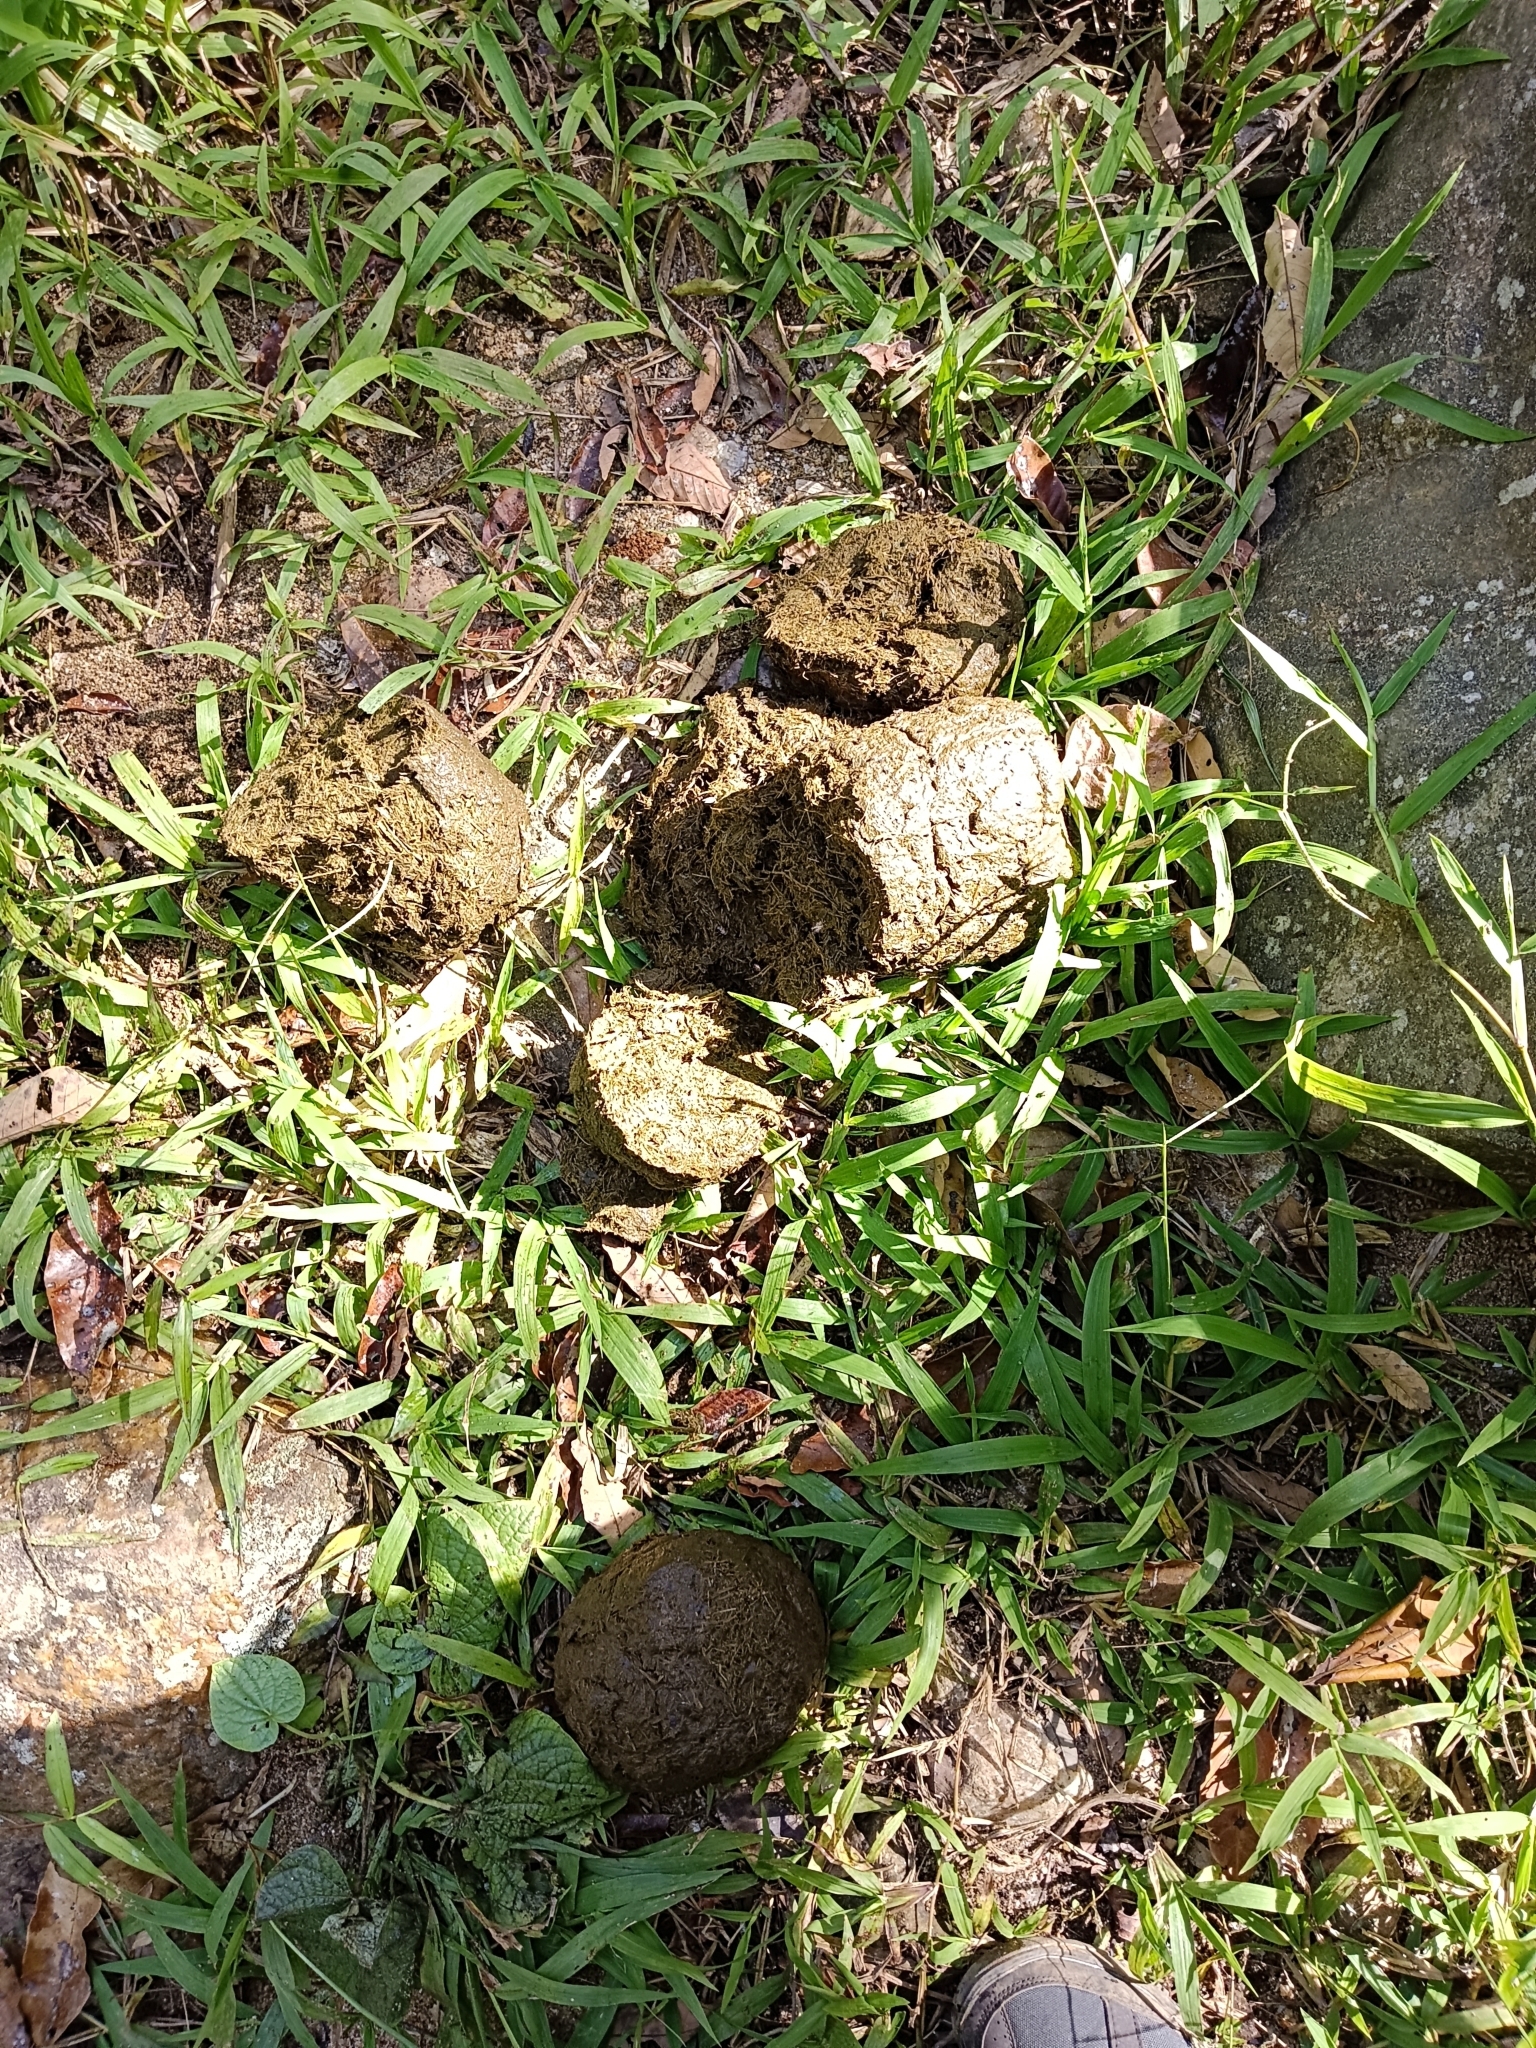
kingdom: Animalia
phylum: Chordata
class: Mammalia
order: Proboscidea
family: Elephantidae
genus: Elephas
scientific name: Elephas maximus
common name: Asian elephant
